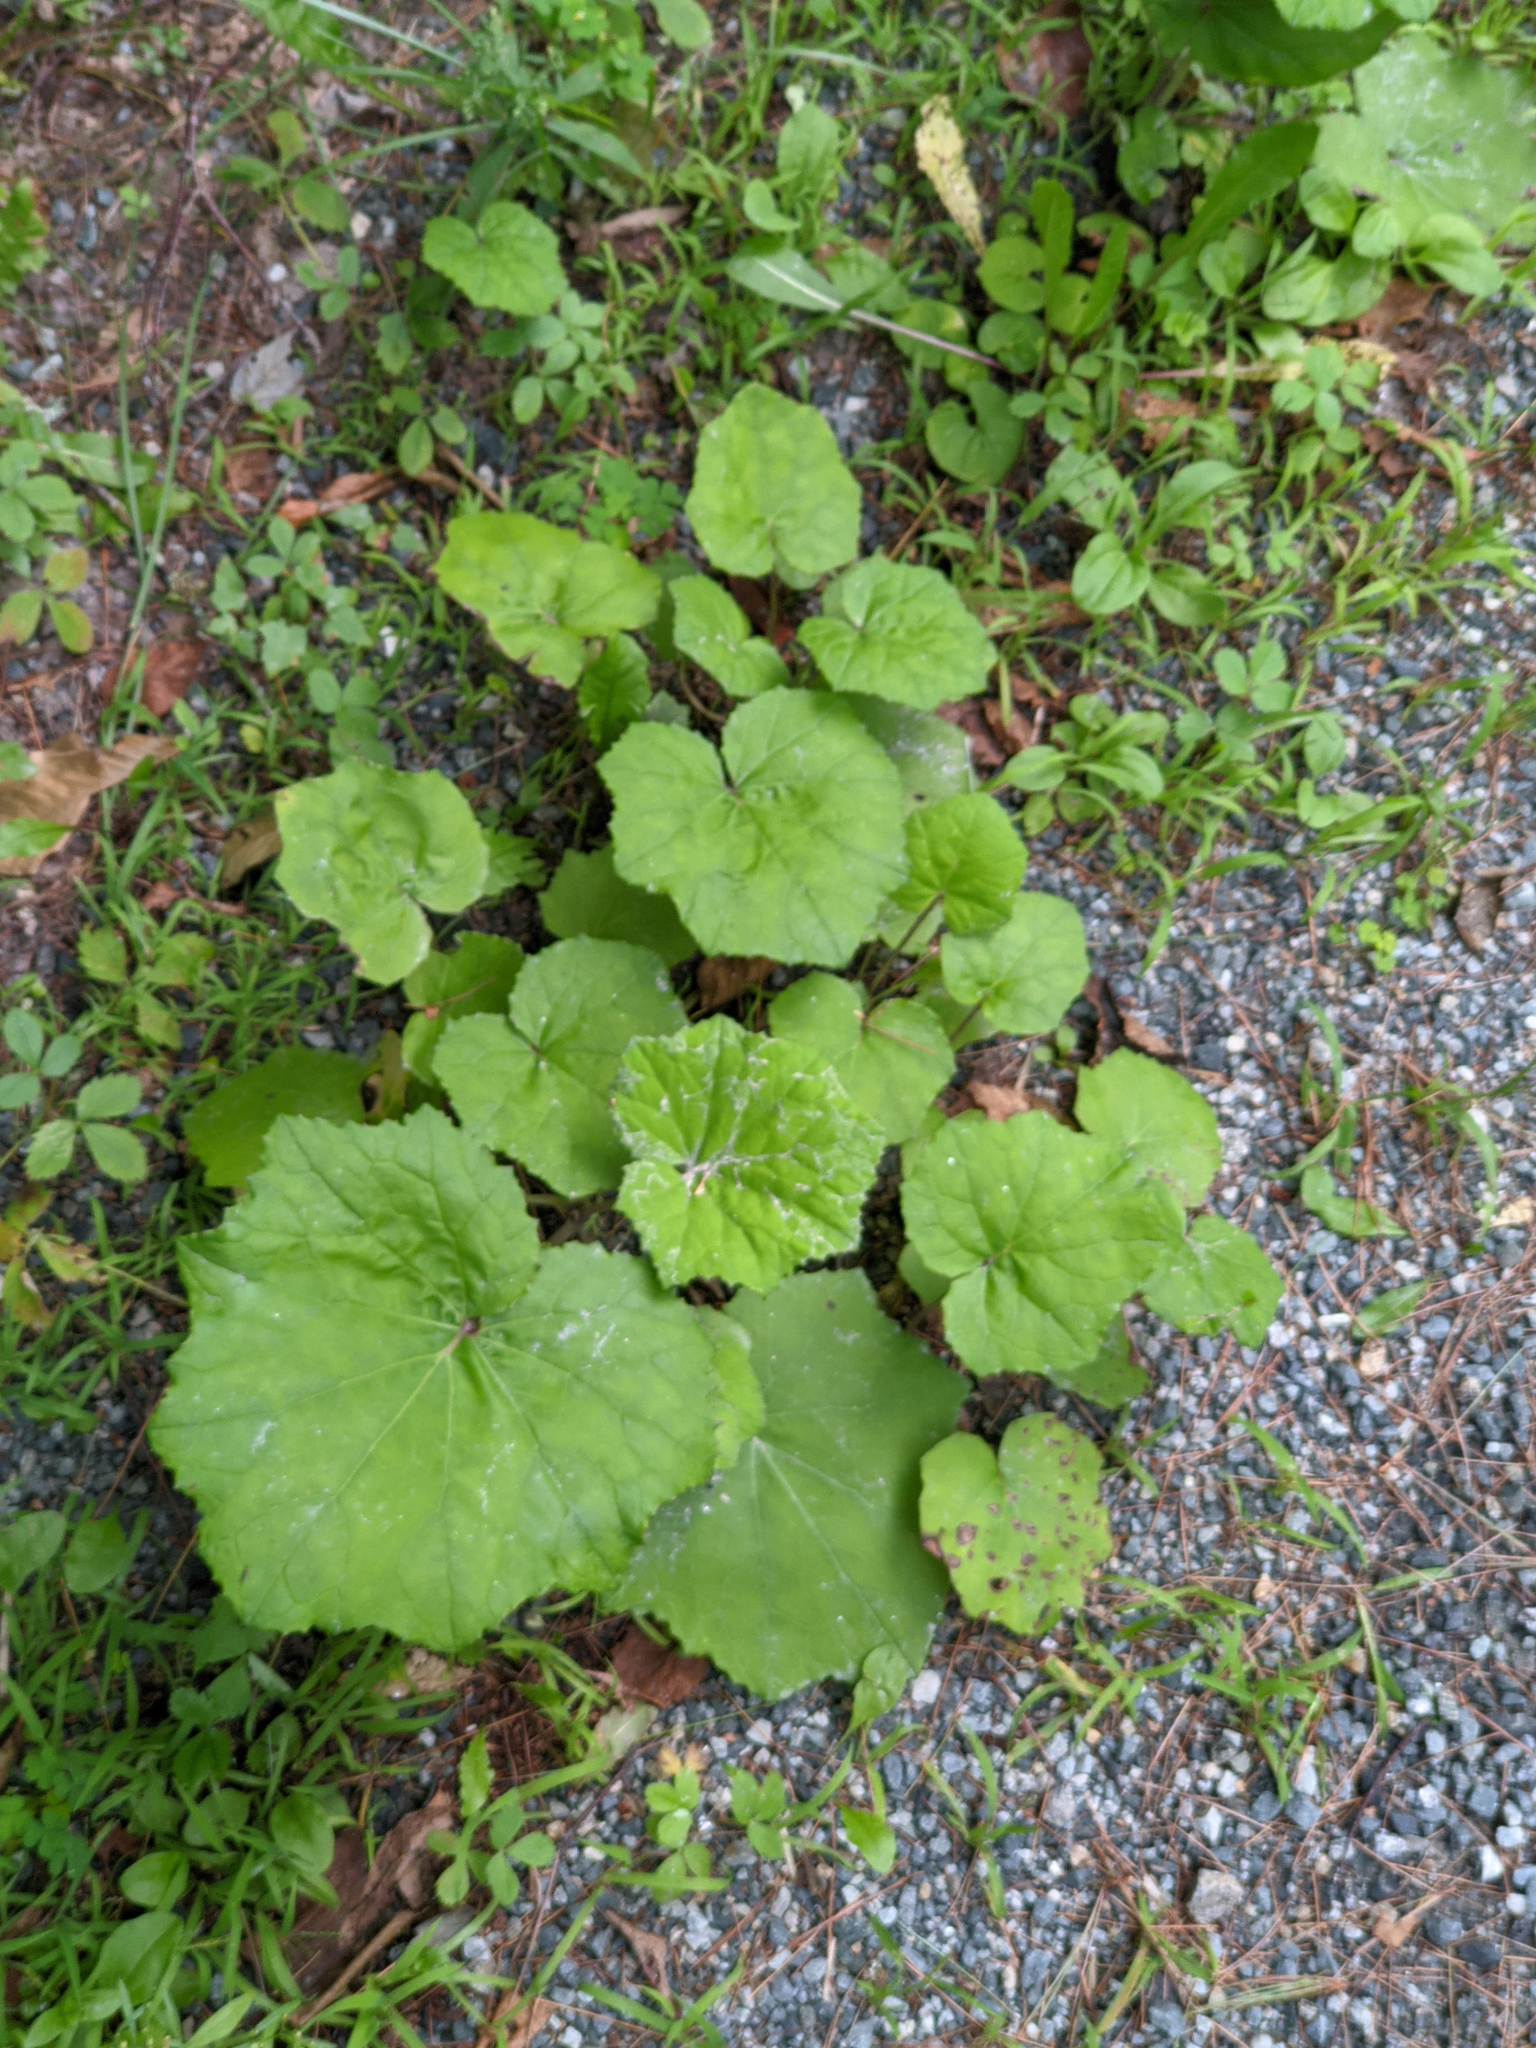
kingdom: Plantae
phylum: Tracheophyta
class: Magnoliopsida
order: Asterales
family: Asteraceae
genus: Tussilago
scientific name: Tussilago farfara
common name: Coltsfoot
